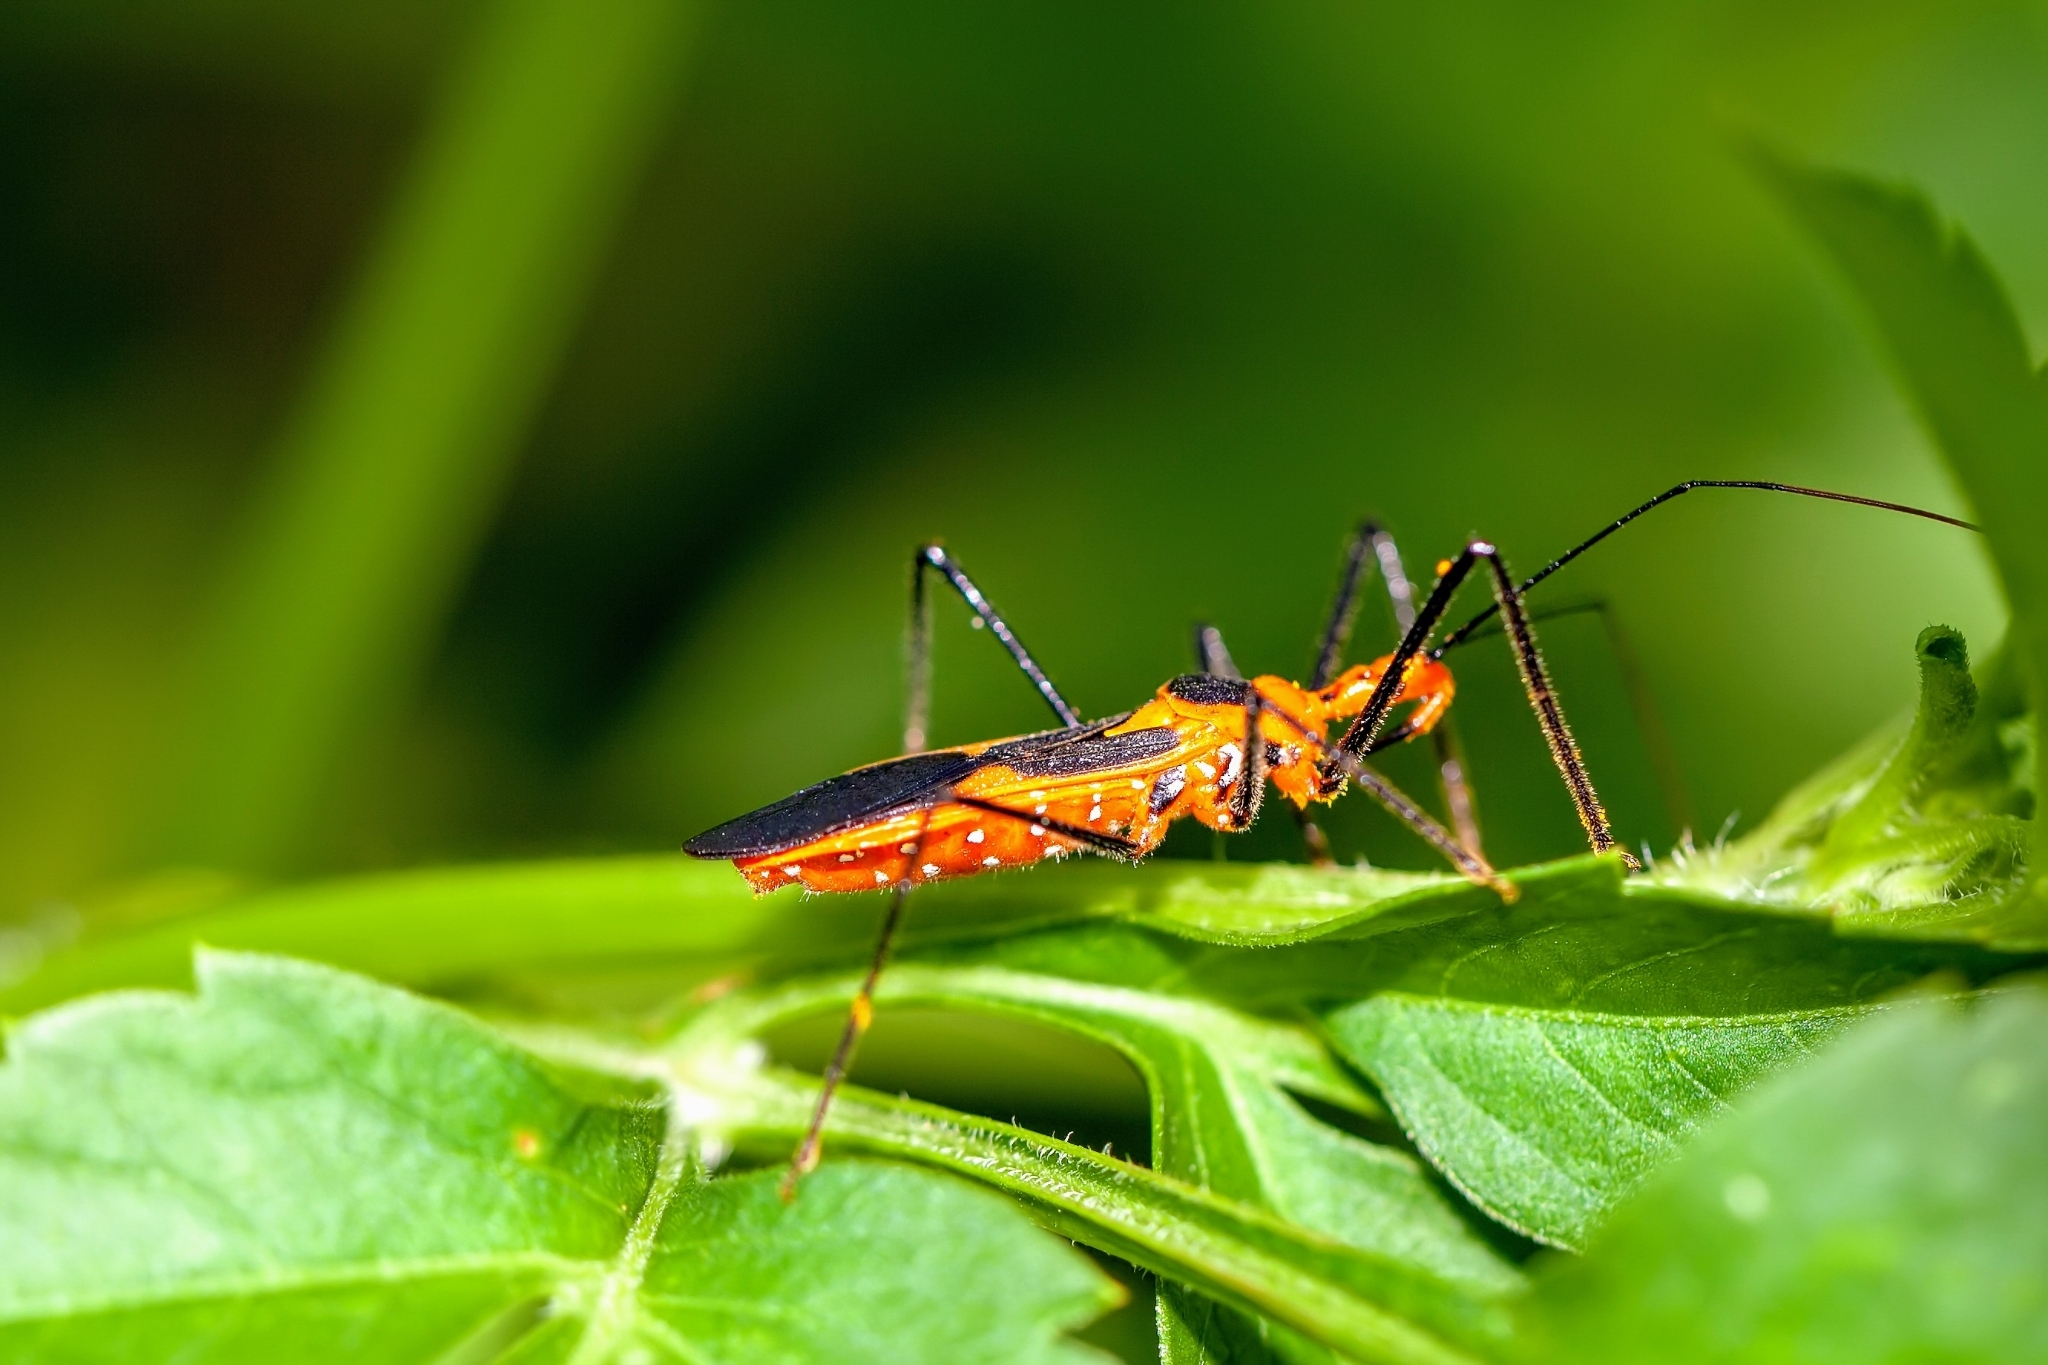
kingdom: Animalia
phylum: Arthropoda
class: Insecta
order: Hemiptera
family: Reduviidae
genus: Zelus
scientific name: Zelus longipes
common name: Milkweed assassin bug
